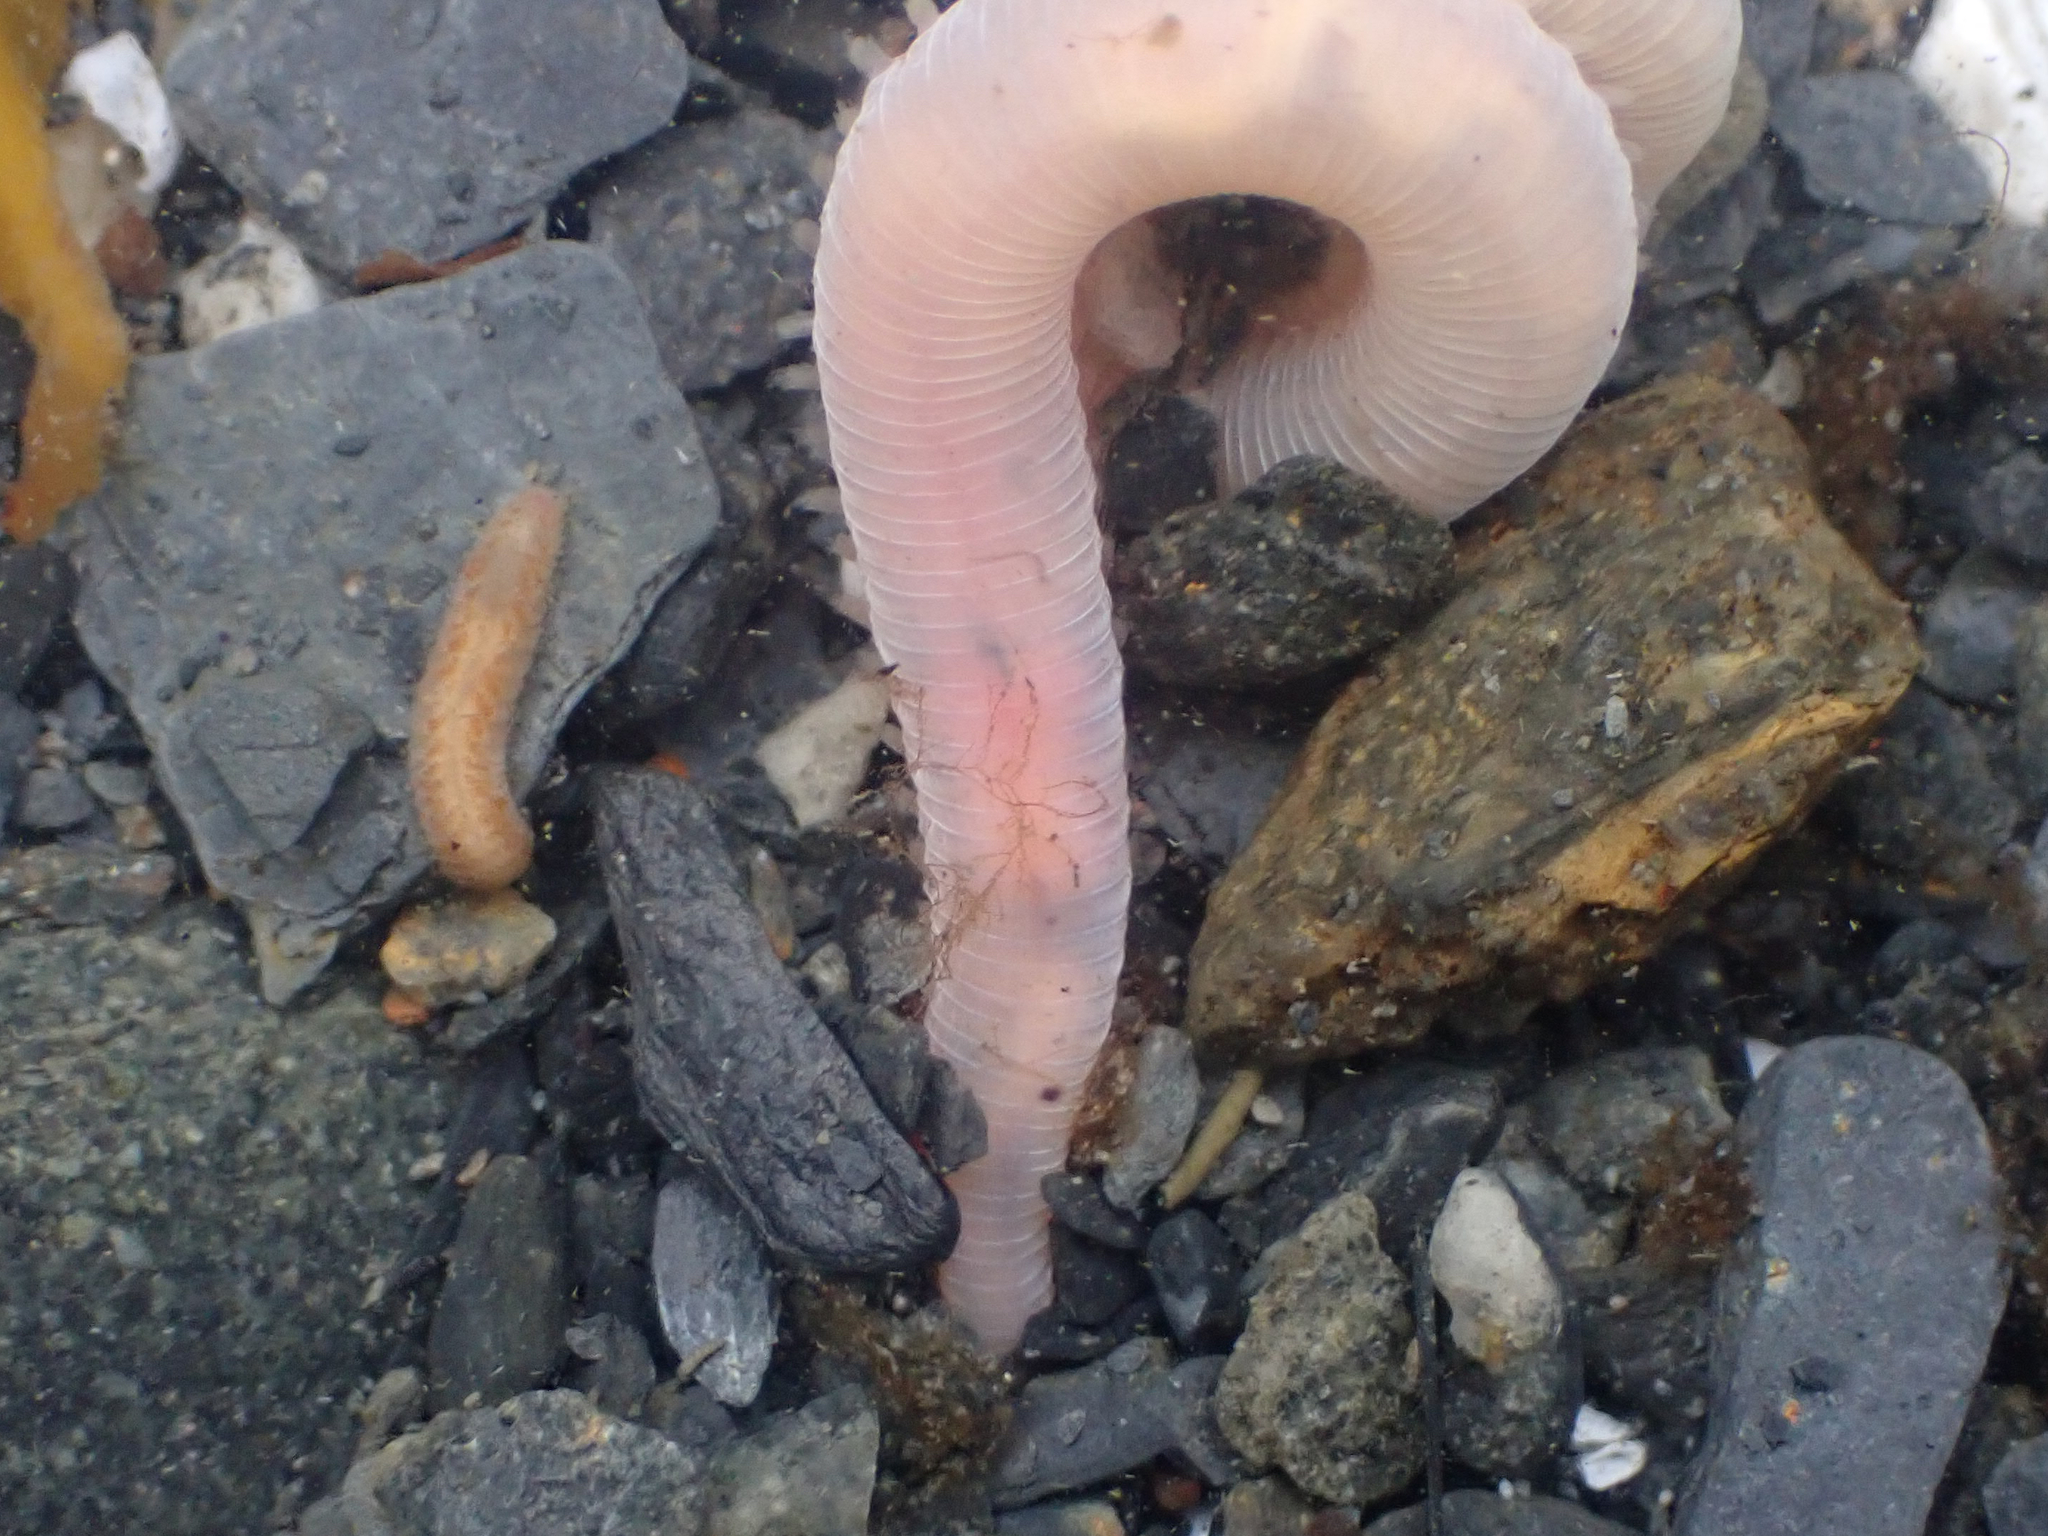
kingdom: Animalia
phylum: Annelida
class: Polychaeta
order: Phyllodocida
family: Glyceridae
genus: Hemipodia
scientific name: Hemipodia simplex
